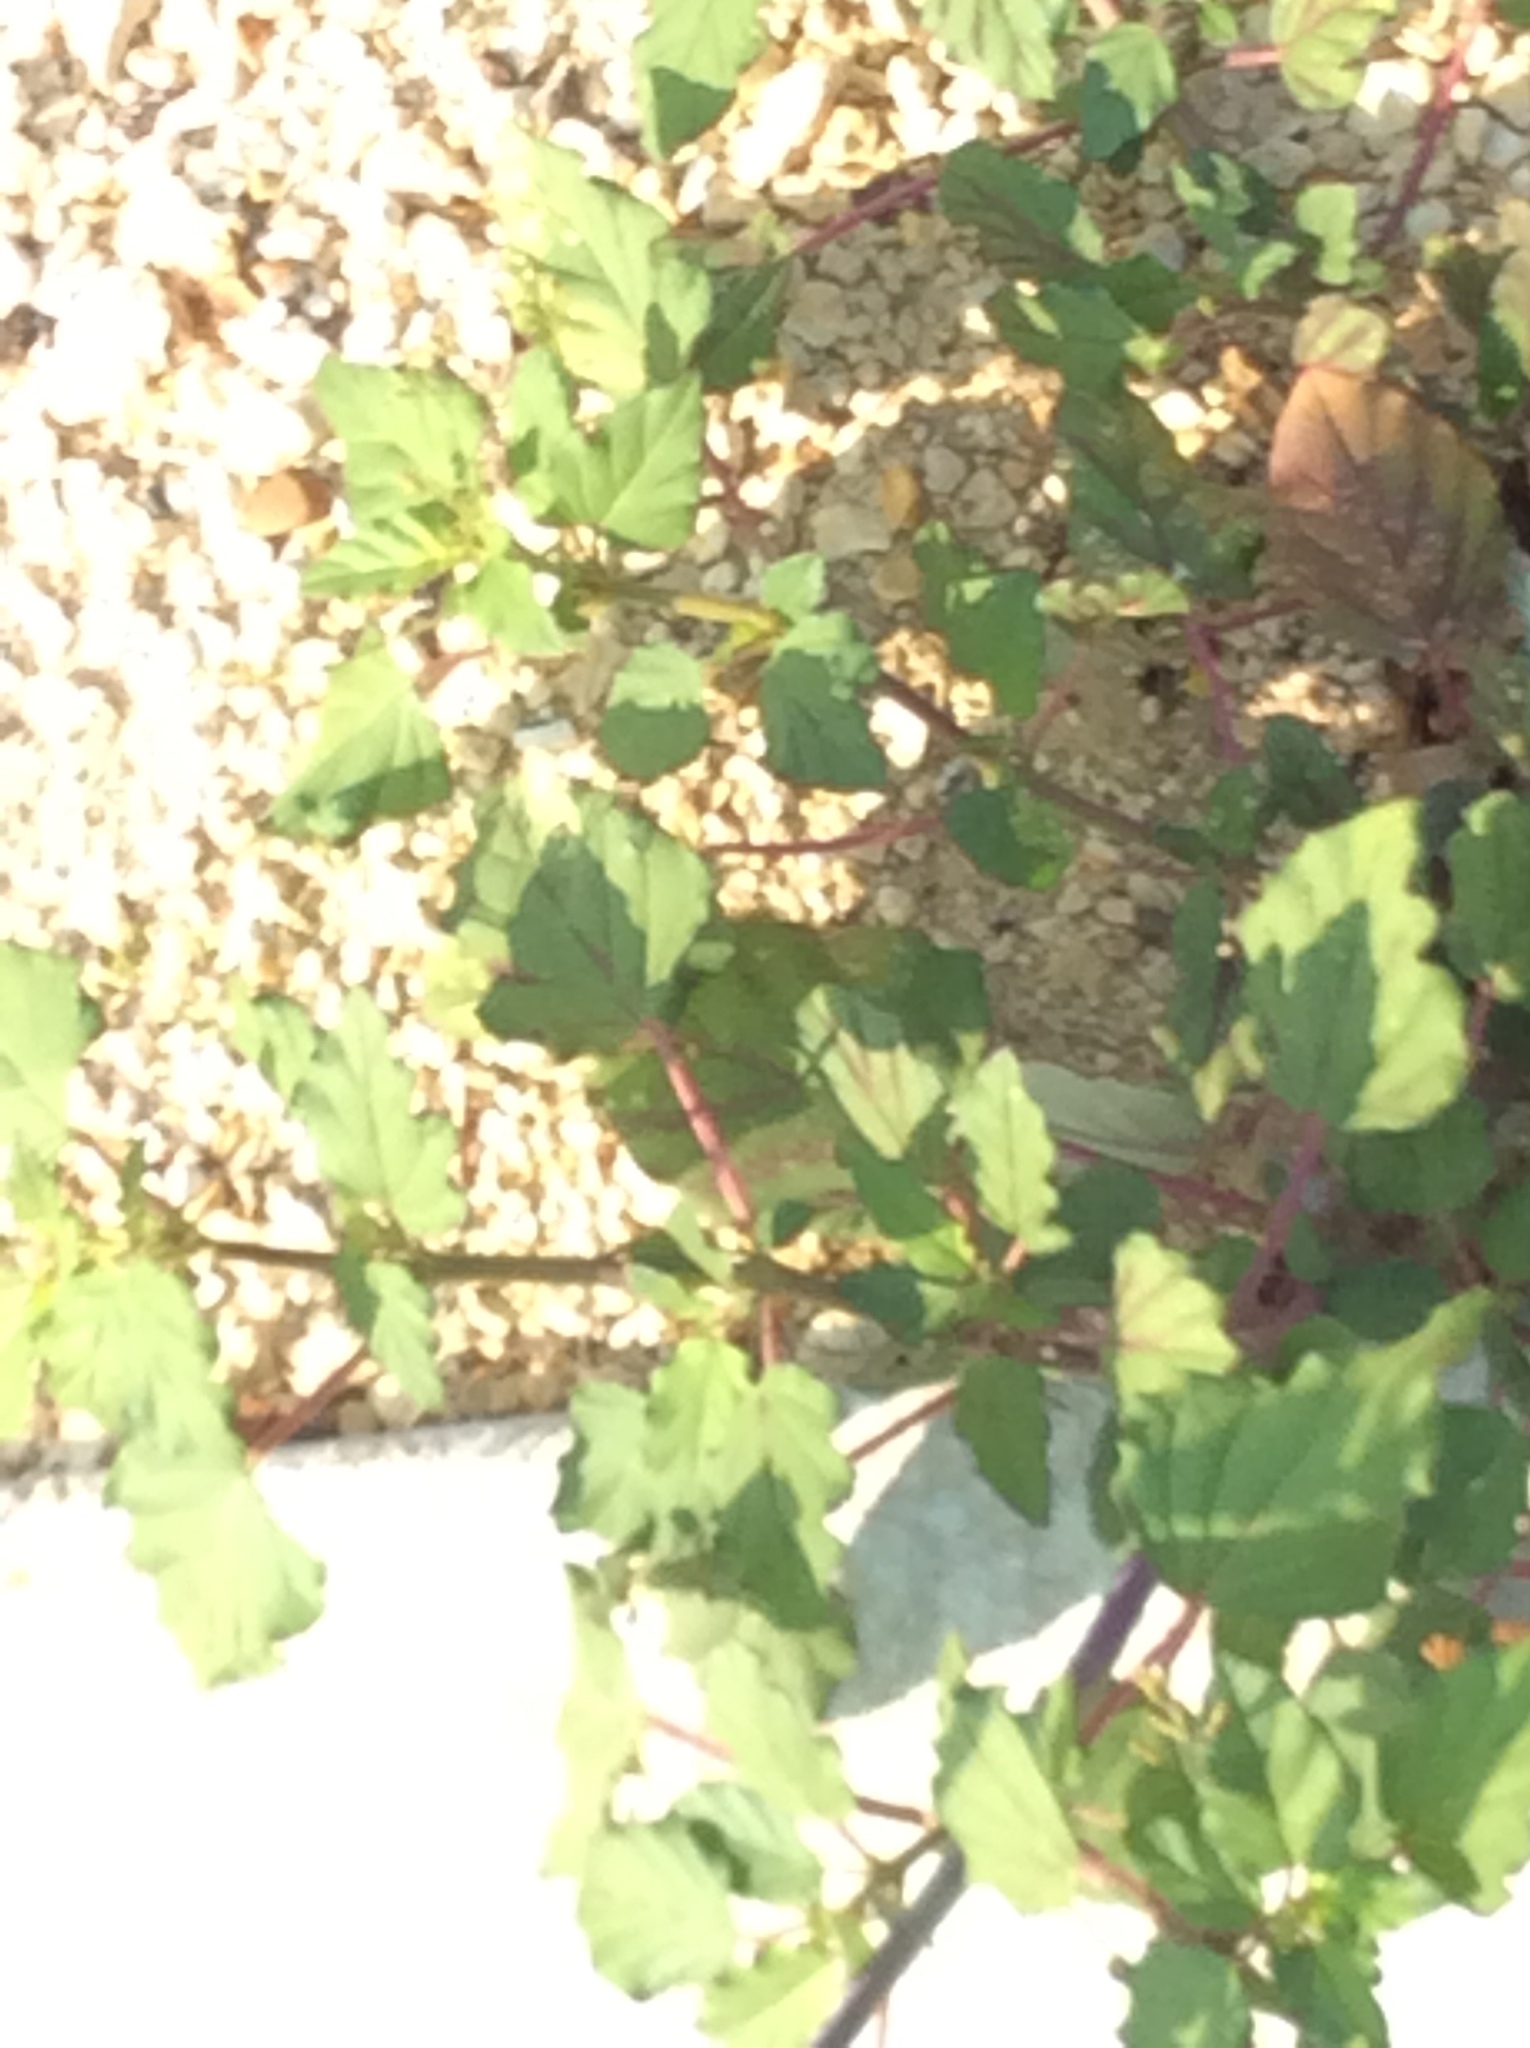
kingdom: Plantae
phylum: Tracheophyta
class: Magnoliopsida
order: Caryophyllales
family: Nyctaginaceae
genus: Boerhavia
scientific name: Boerhavia erecta
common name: Erect spiderling
